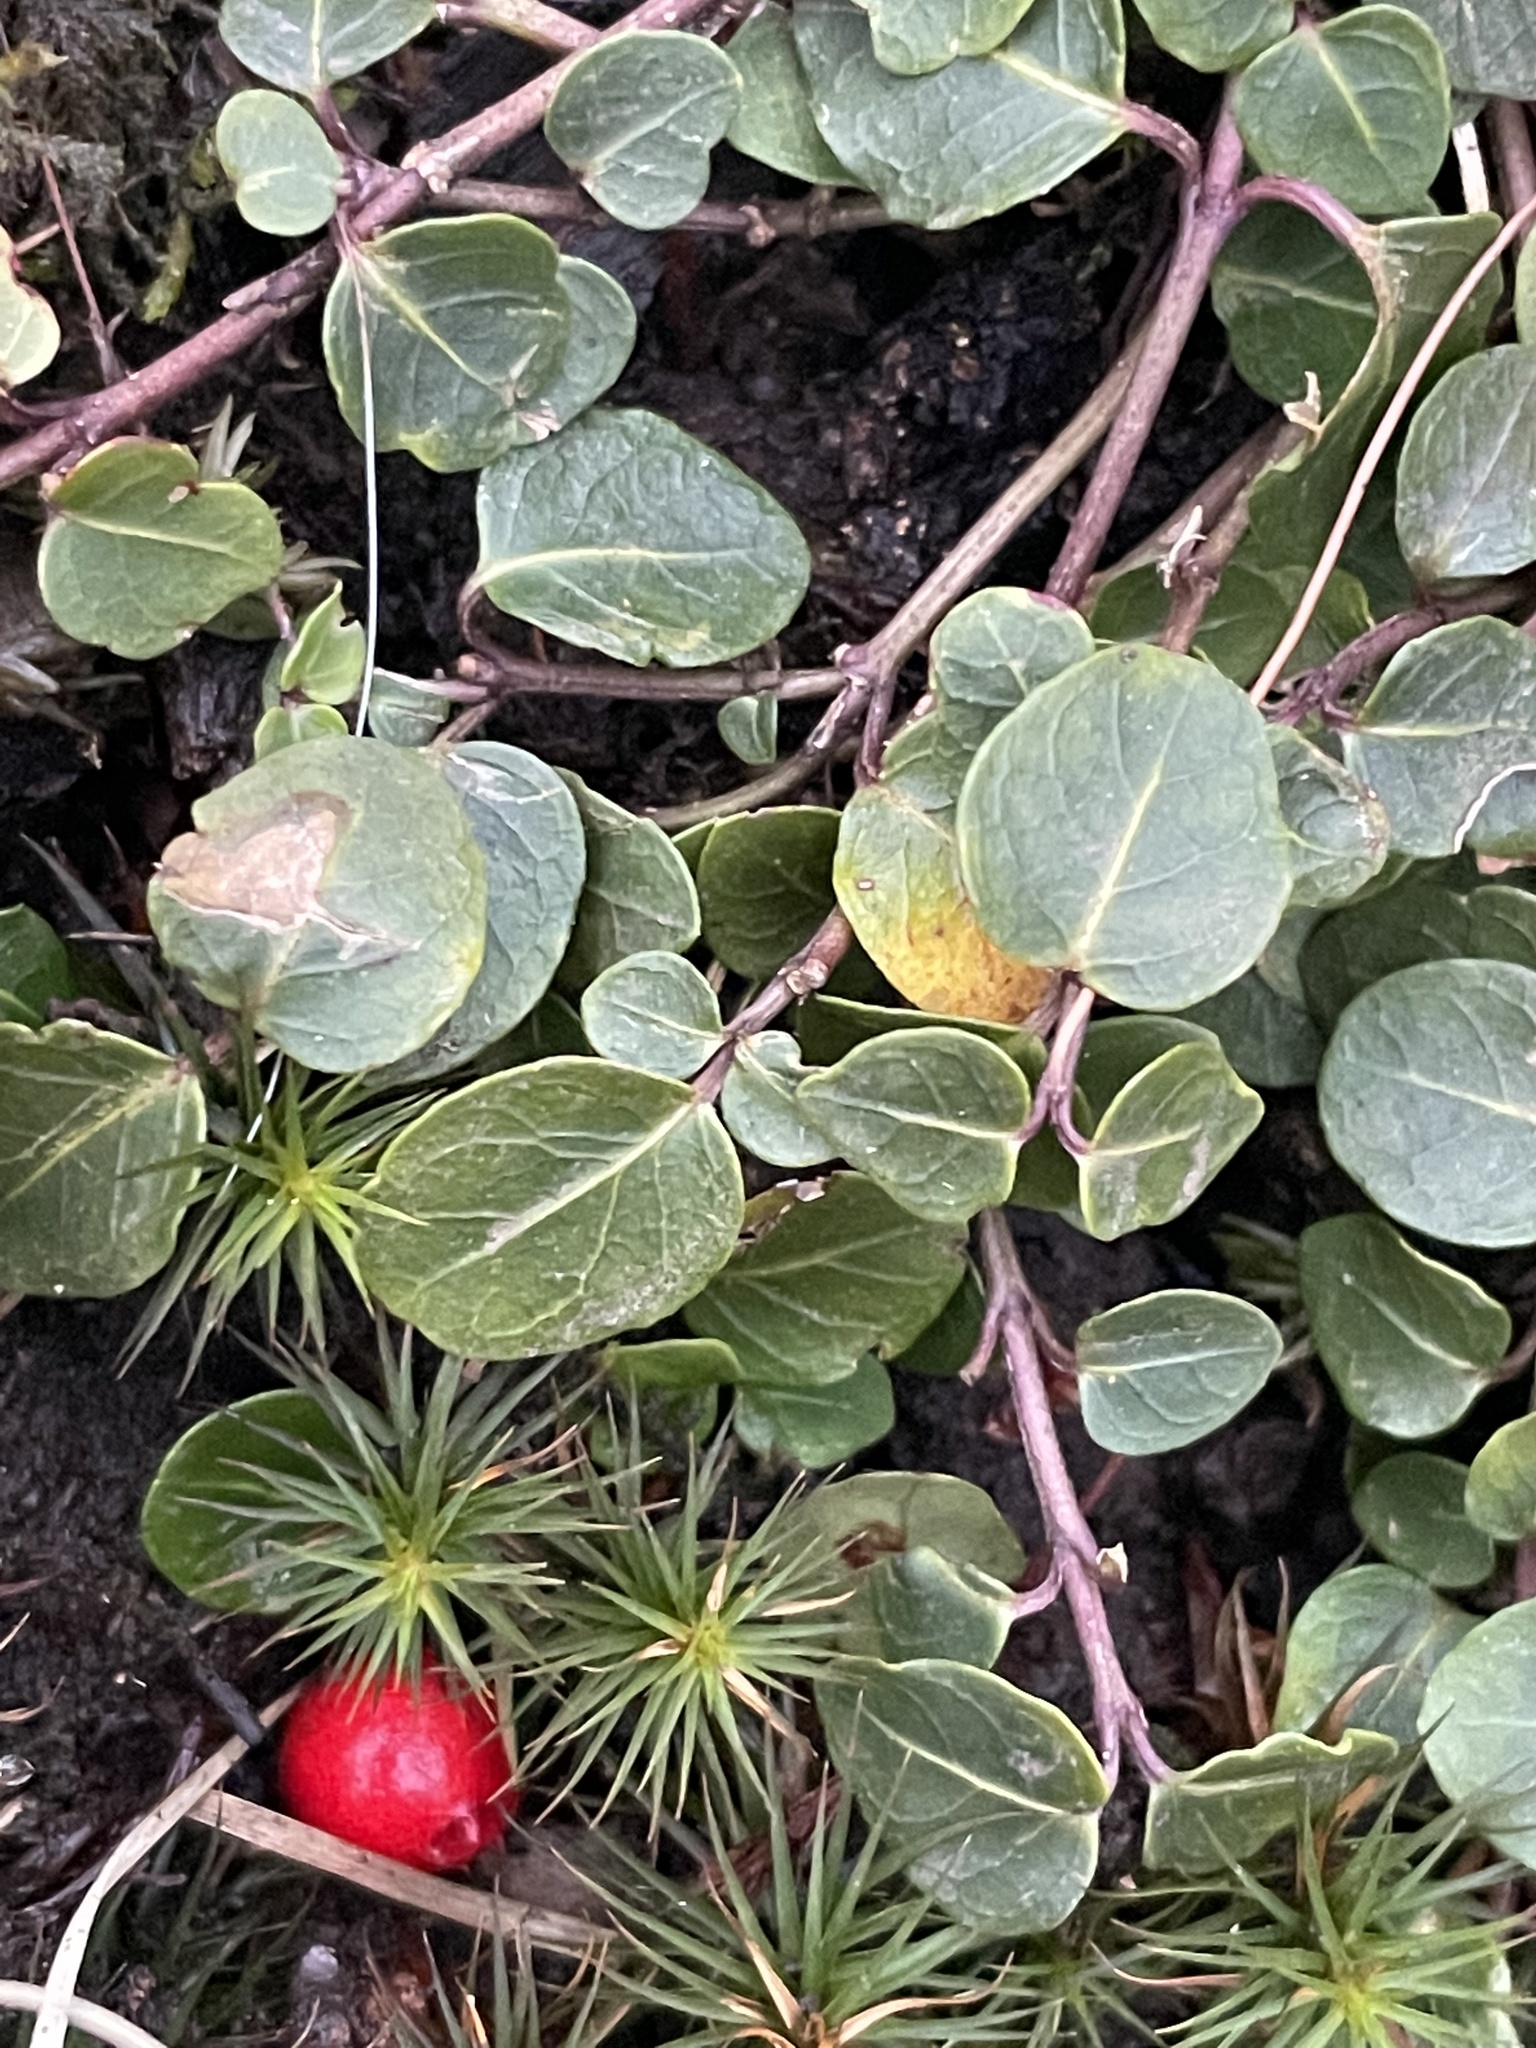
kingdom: Plantae
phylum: Tracheophyta
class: Magnoliopsida
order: Gentianales
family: Rubiaceae
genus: Mitchella
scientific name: Mitchella repens
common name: Partridge-berry
